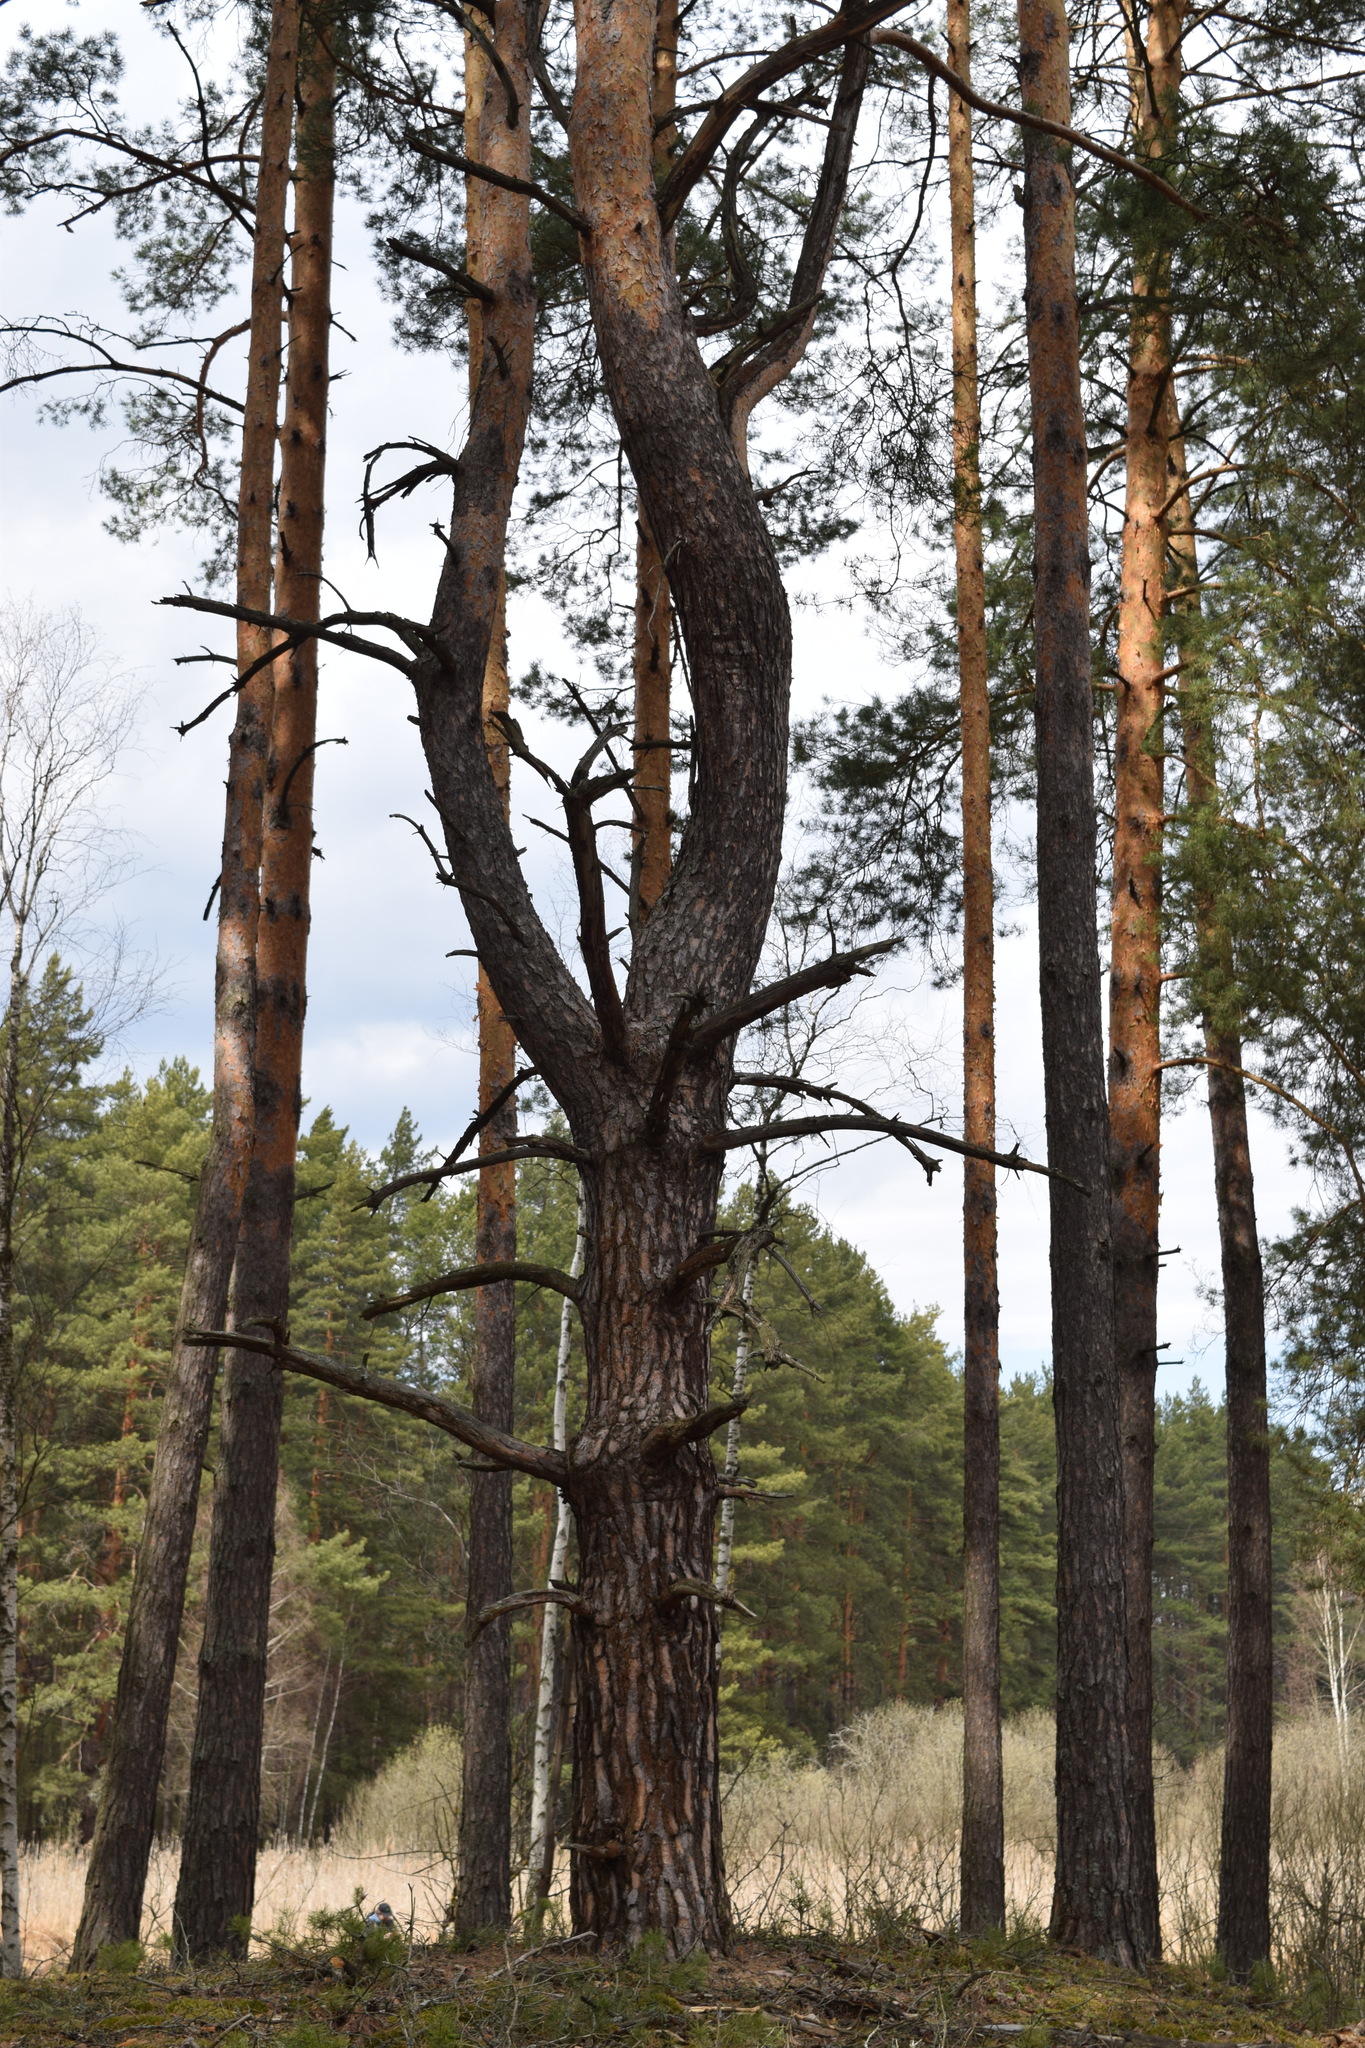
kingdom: Plantae
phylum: Tracheophyta
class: Pinopsida
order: Pinales
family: Pinaceae
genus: Pinus
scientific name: Pinus sylvestris
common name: Scots pine
